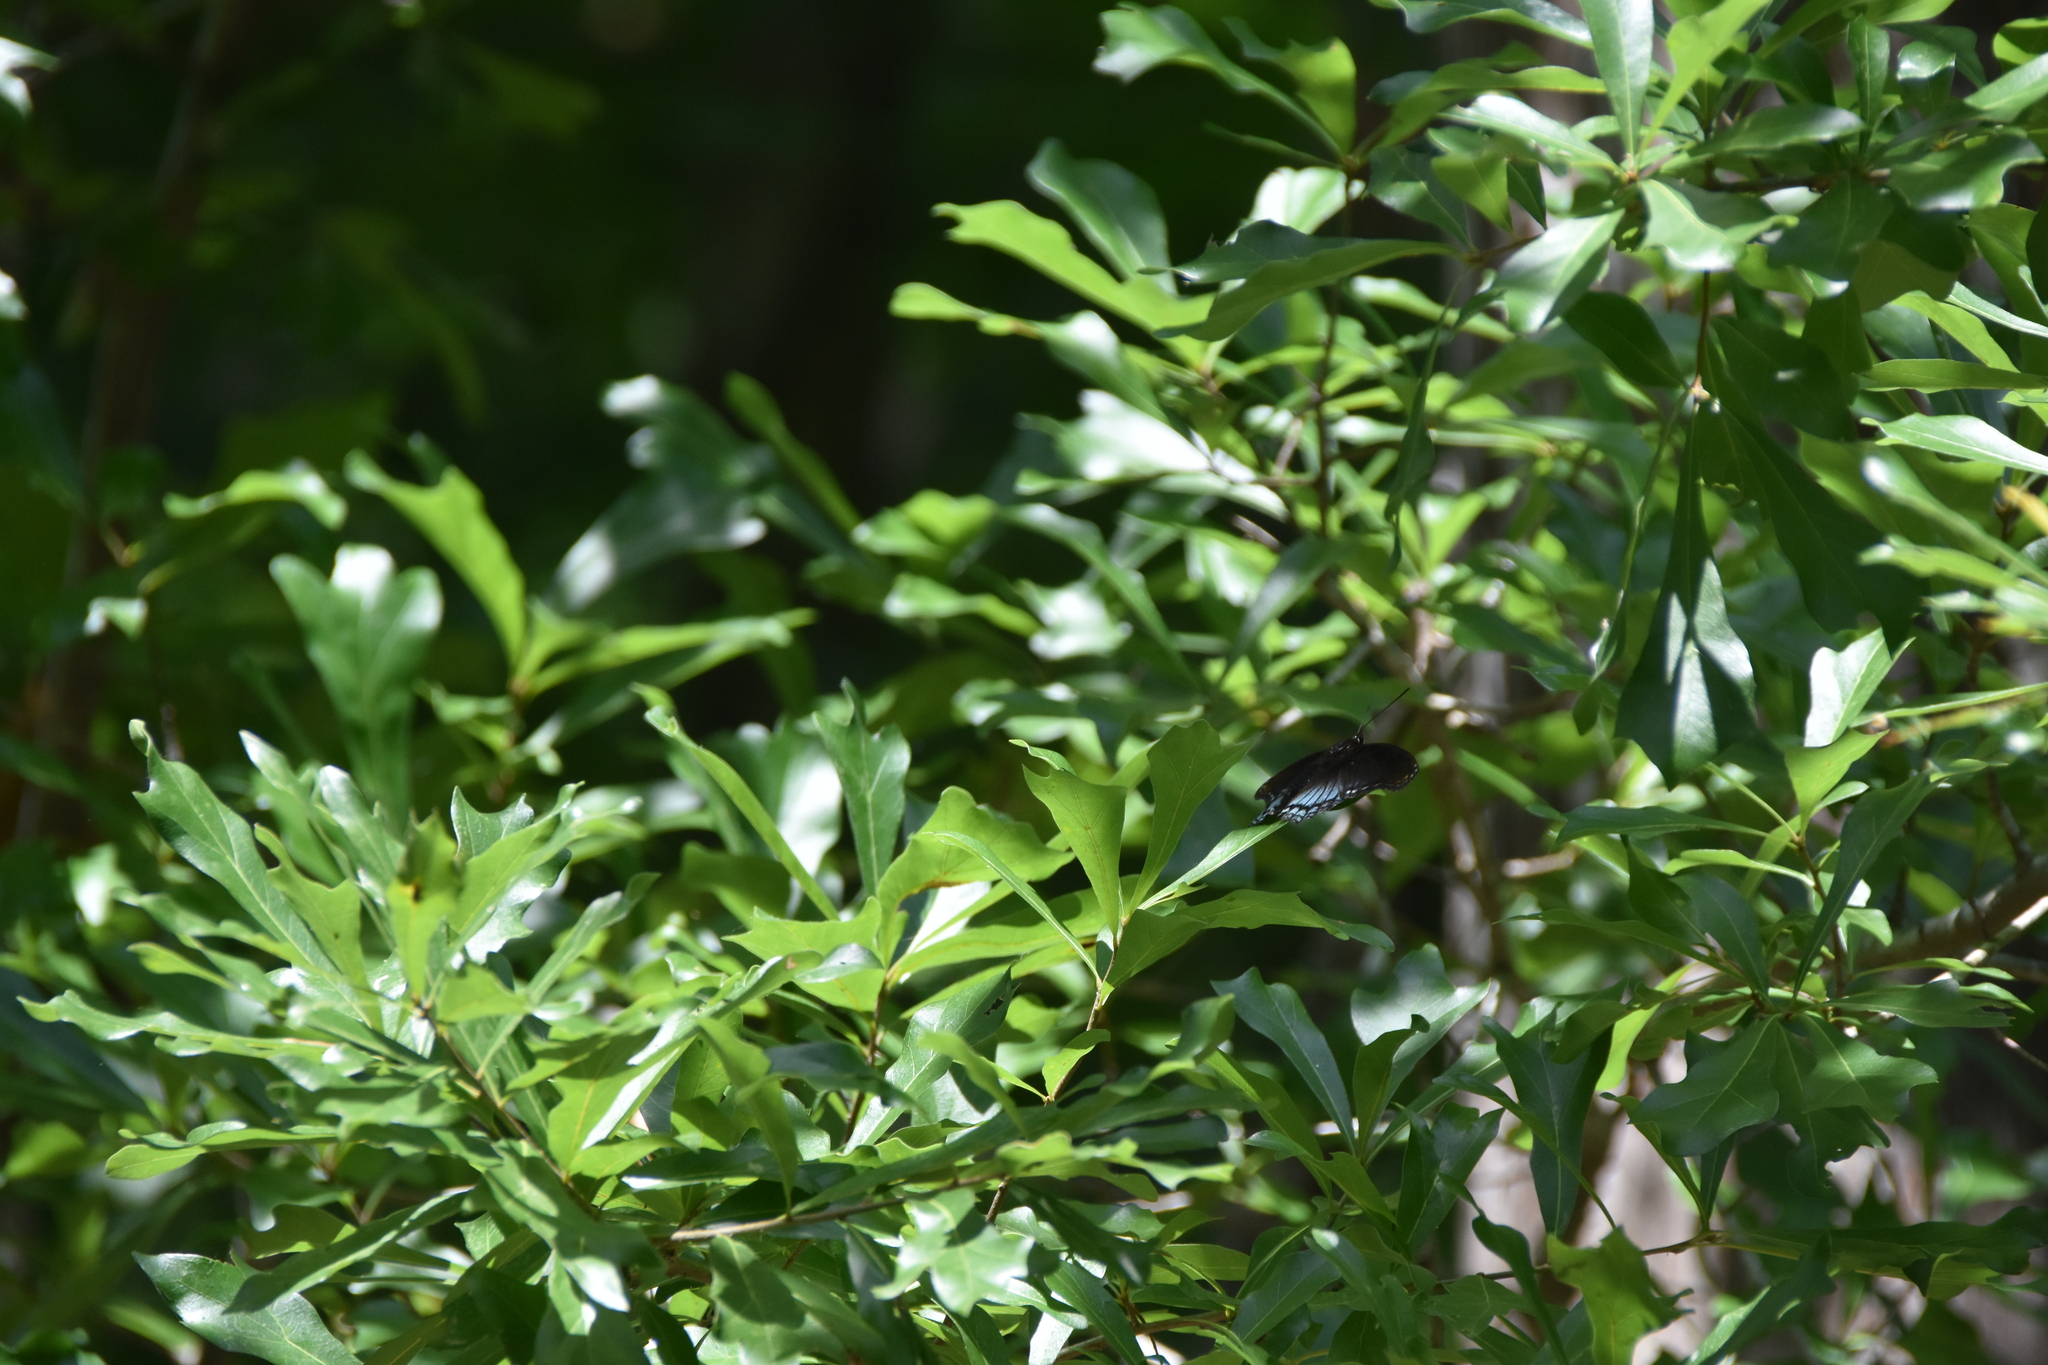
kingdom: Animalia
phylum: Arthropoda
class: Insecta
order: Lepidoptera
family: Nymphalidae
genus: Limenitis
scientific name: Limenitis astyanax
